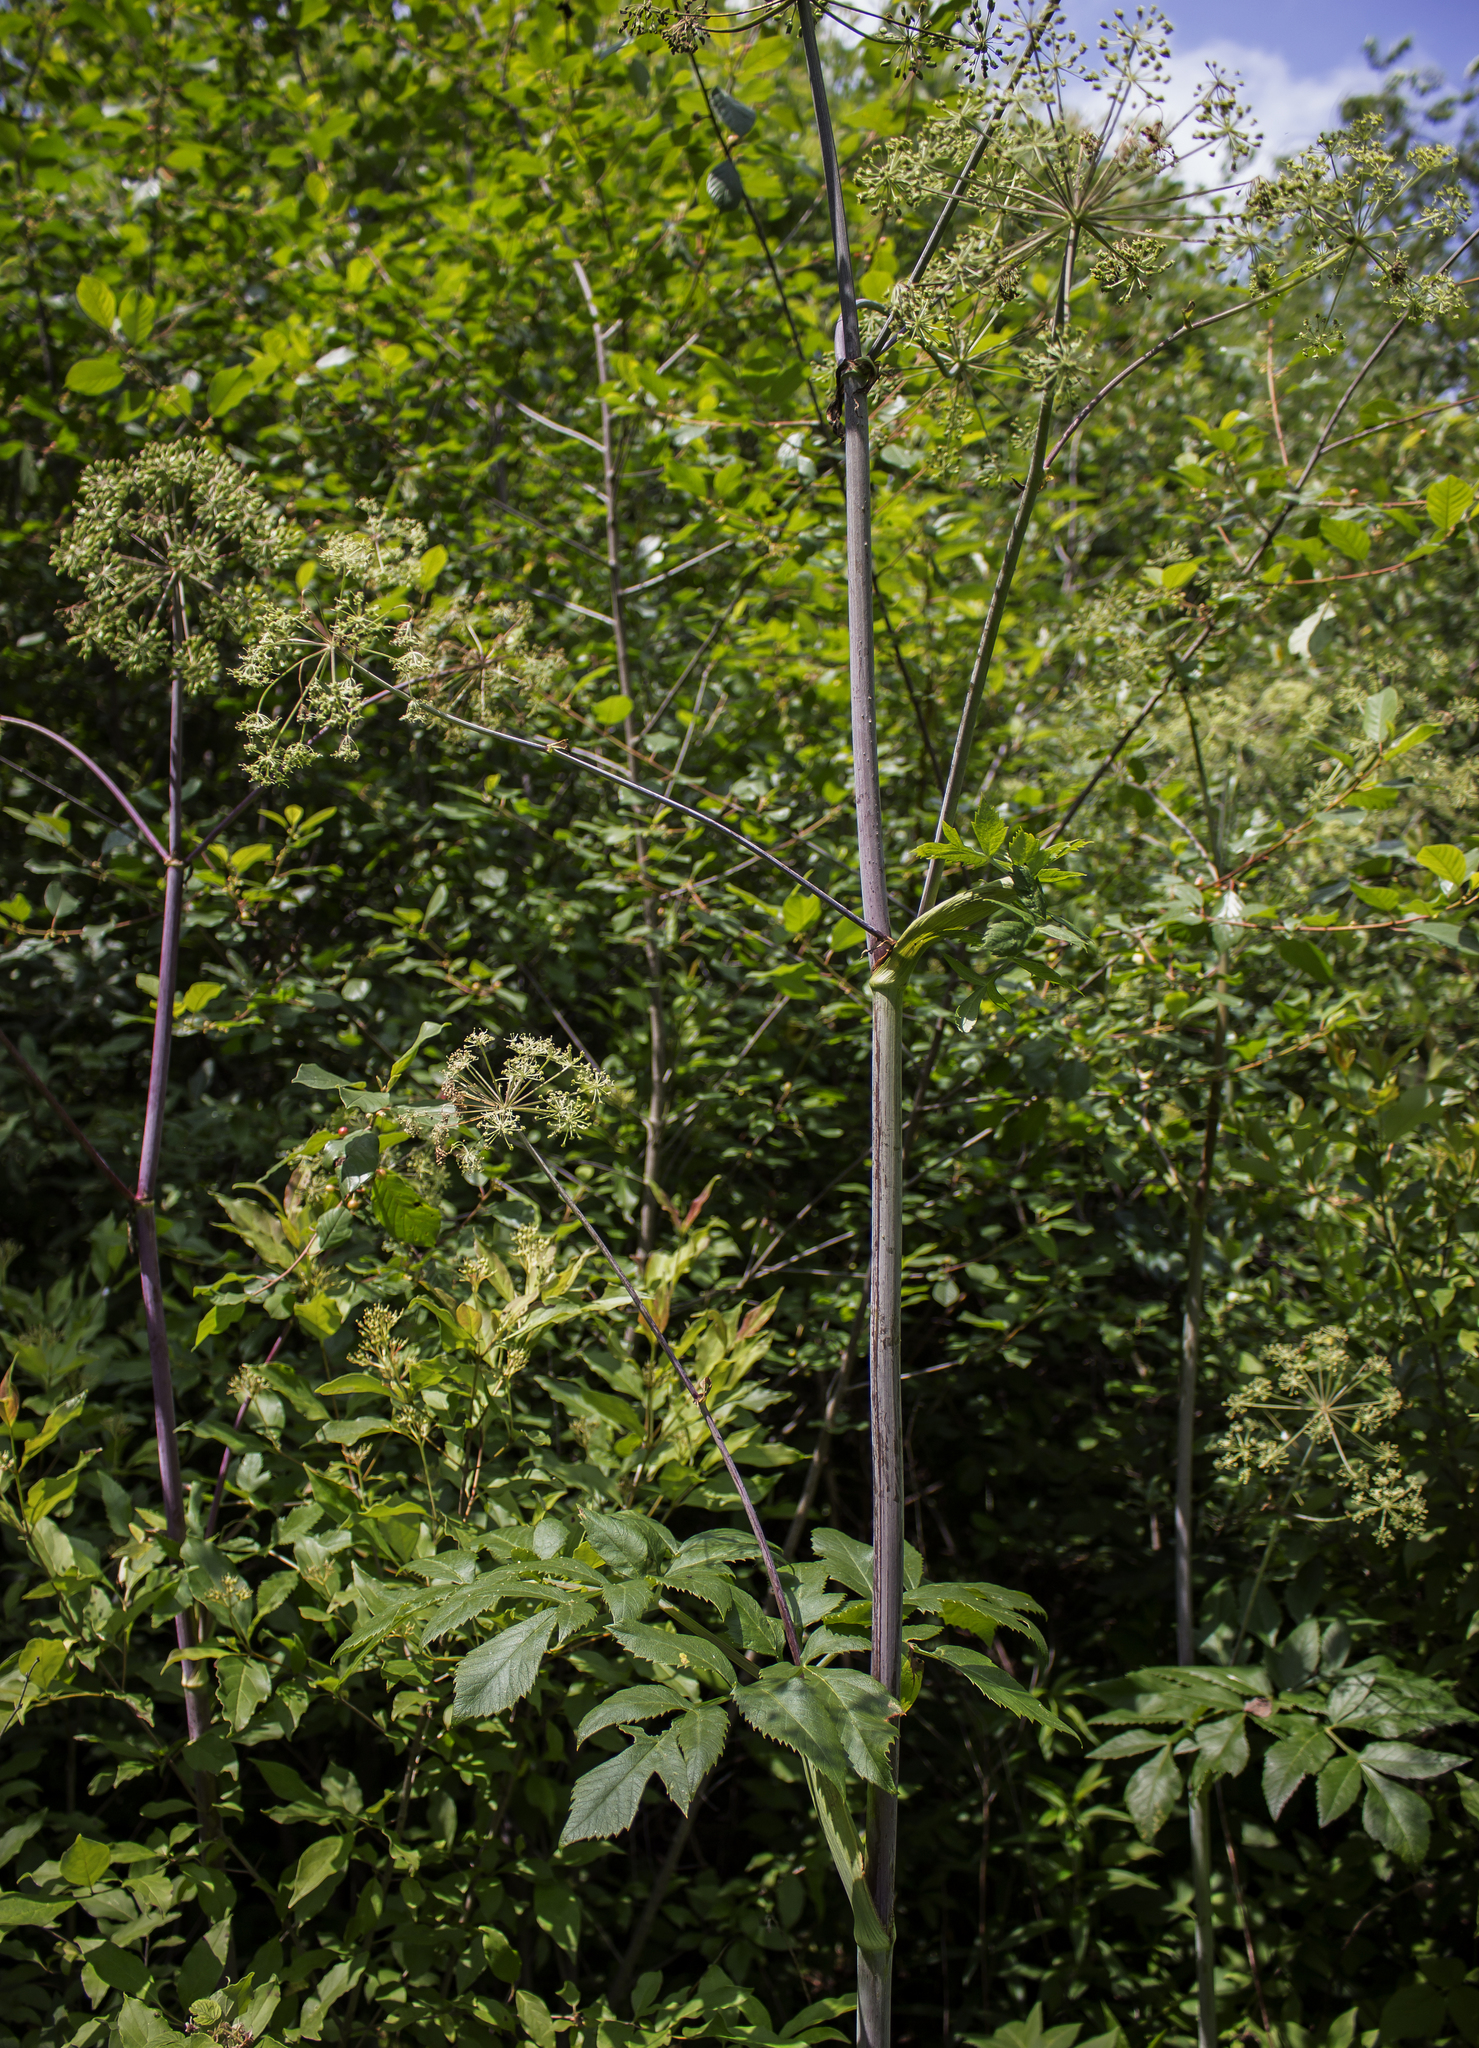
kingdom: Plantae
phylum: Tracheophyta
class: Magnoliopsida
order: Apiales
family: Apiaceae
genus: Angelica
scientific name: Angelica atropurpurea
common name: Great angelica
